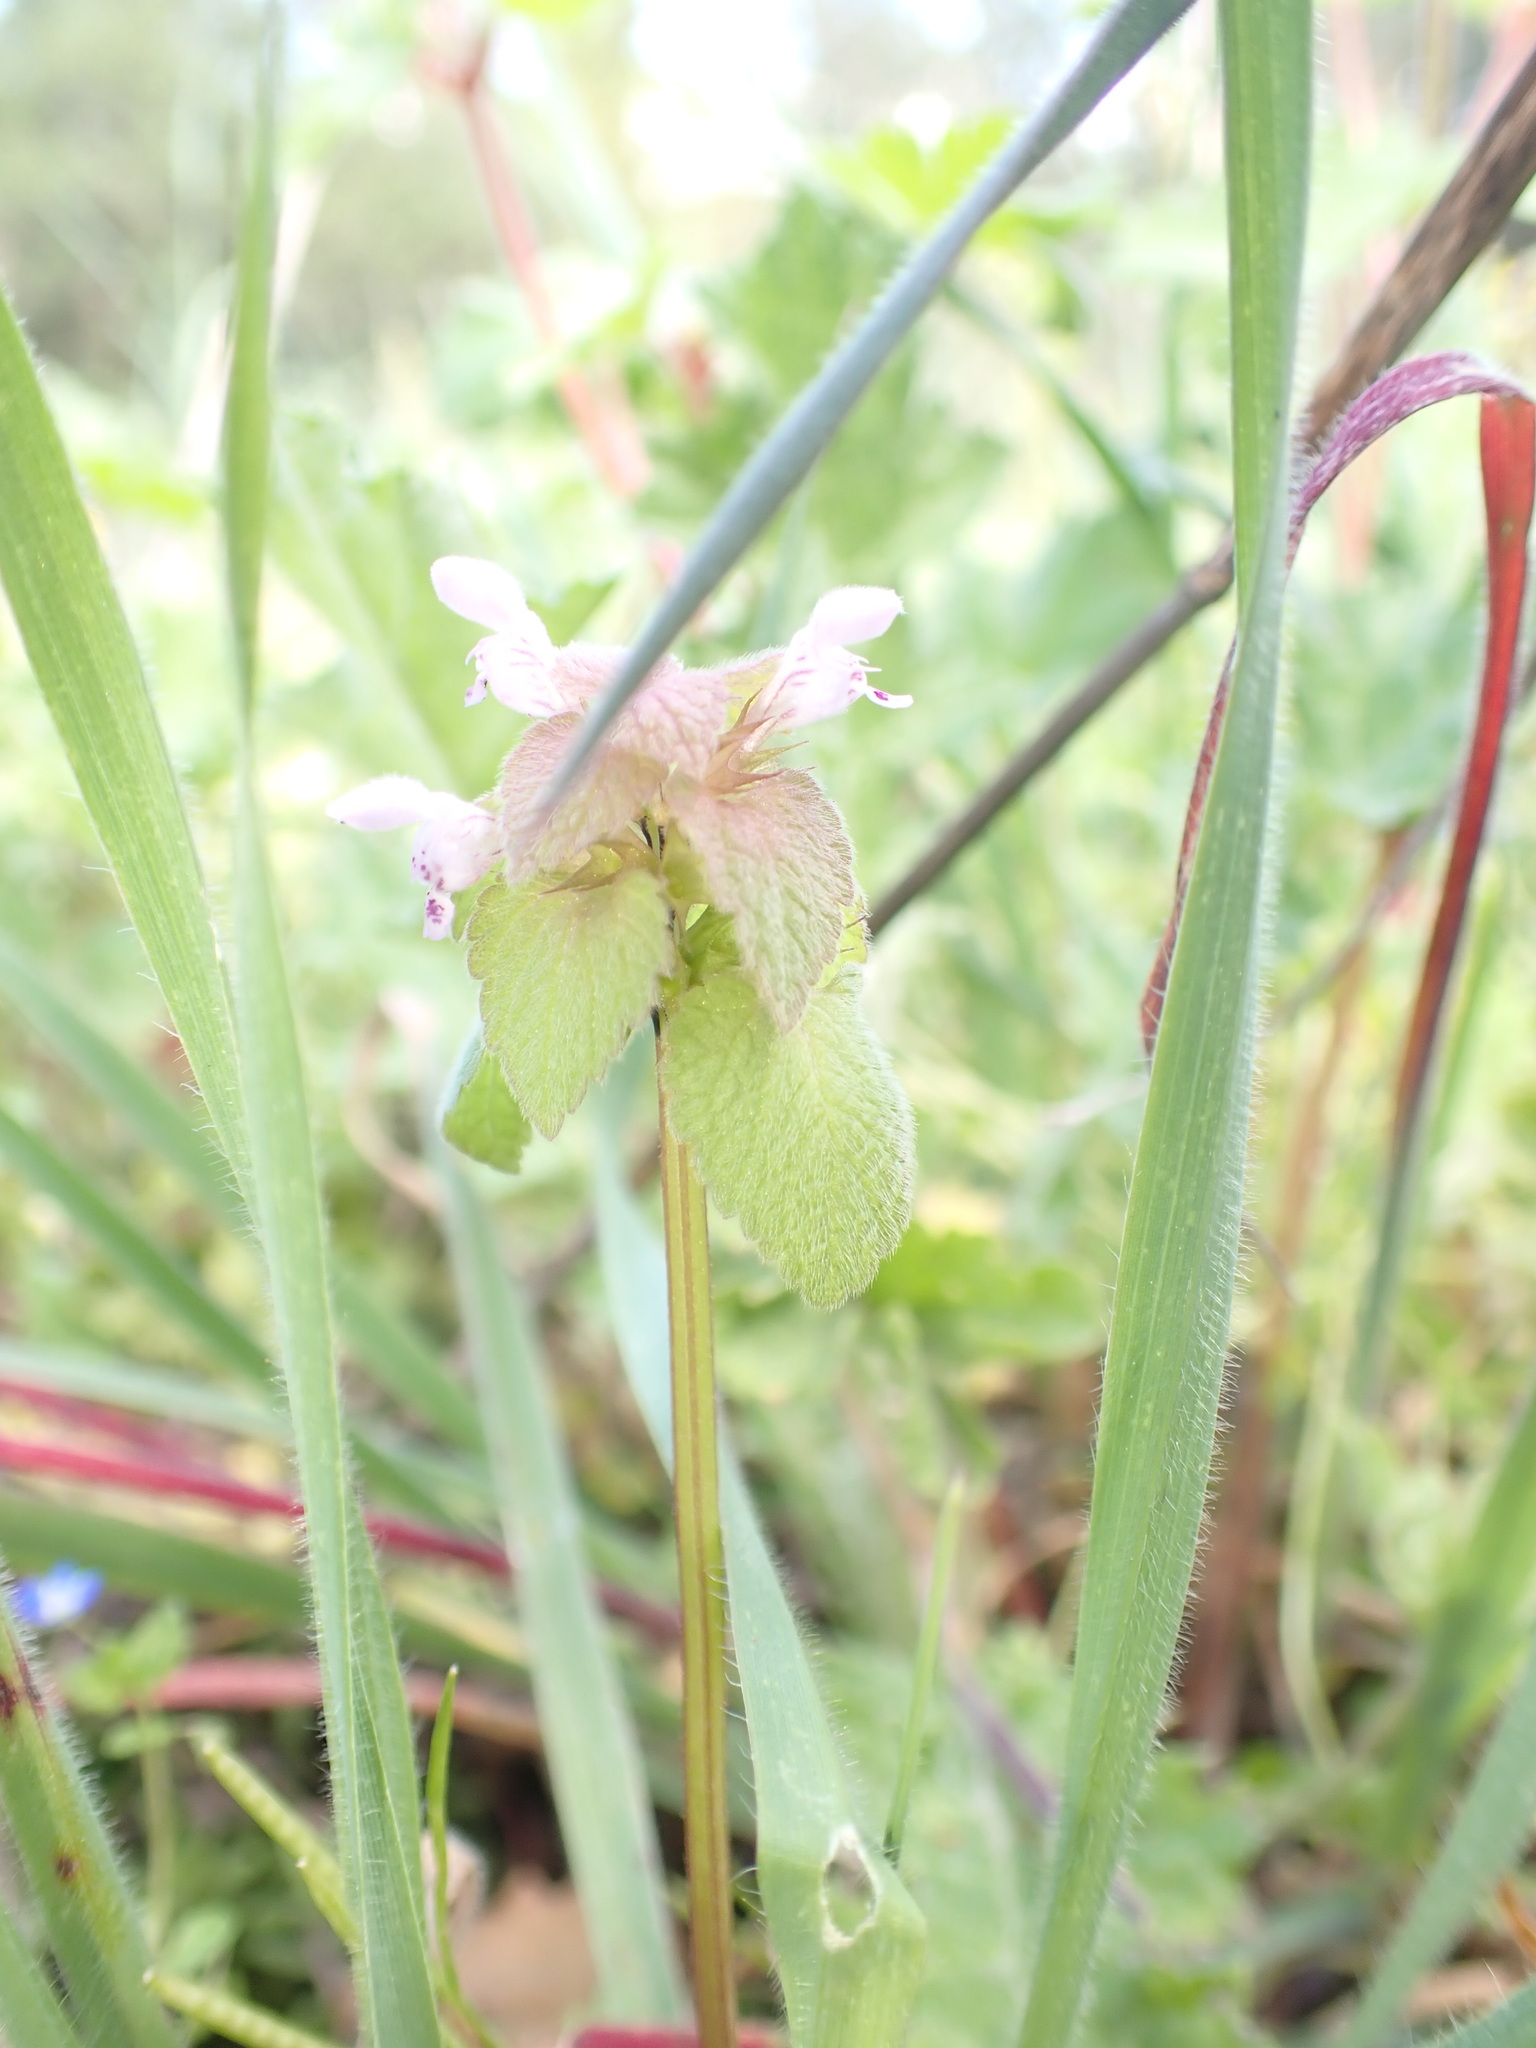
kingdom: Plantae
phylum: Tracheophyta
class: Magnoliopsida
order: Lamiales
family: Lamiaceae
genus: Lamium
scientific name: Lamium purpureum
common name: Red dead-nettle
